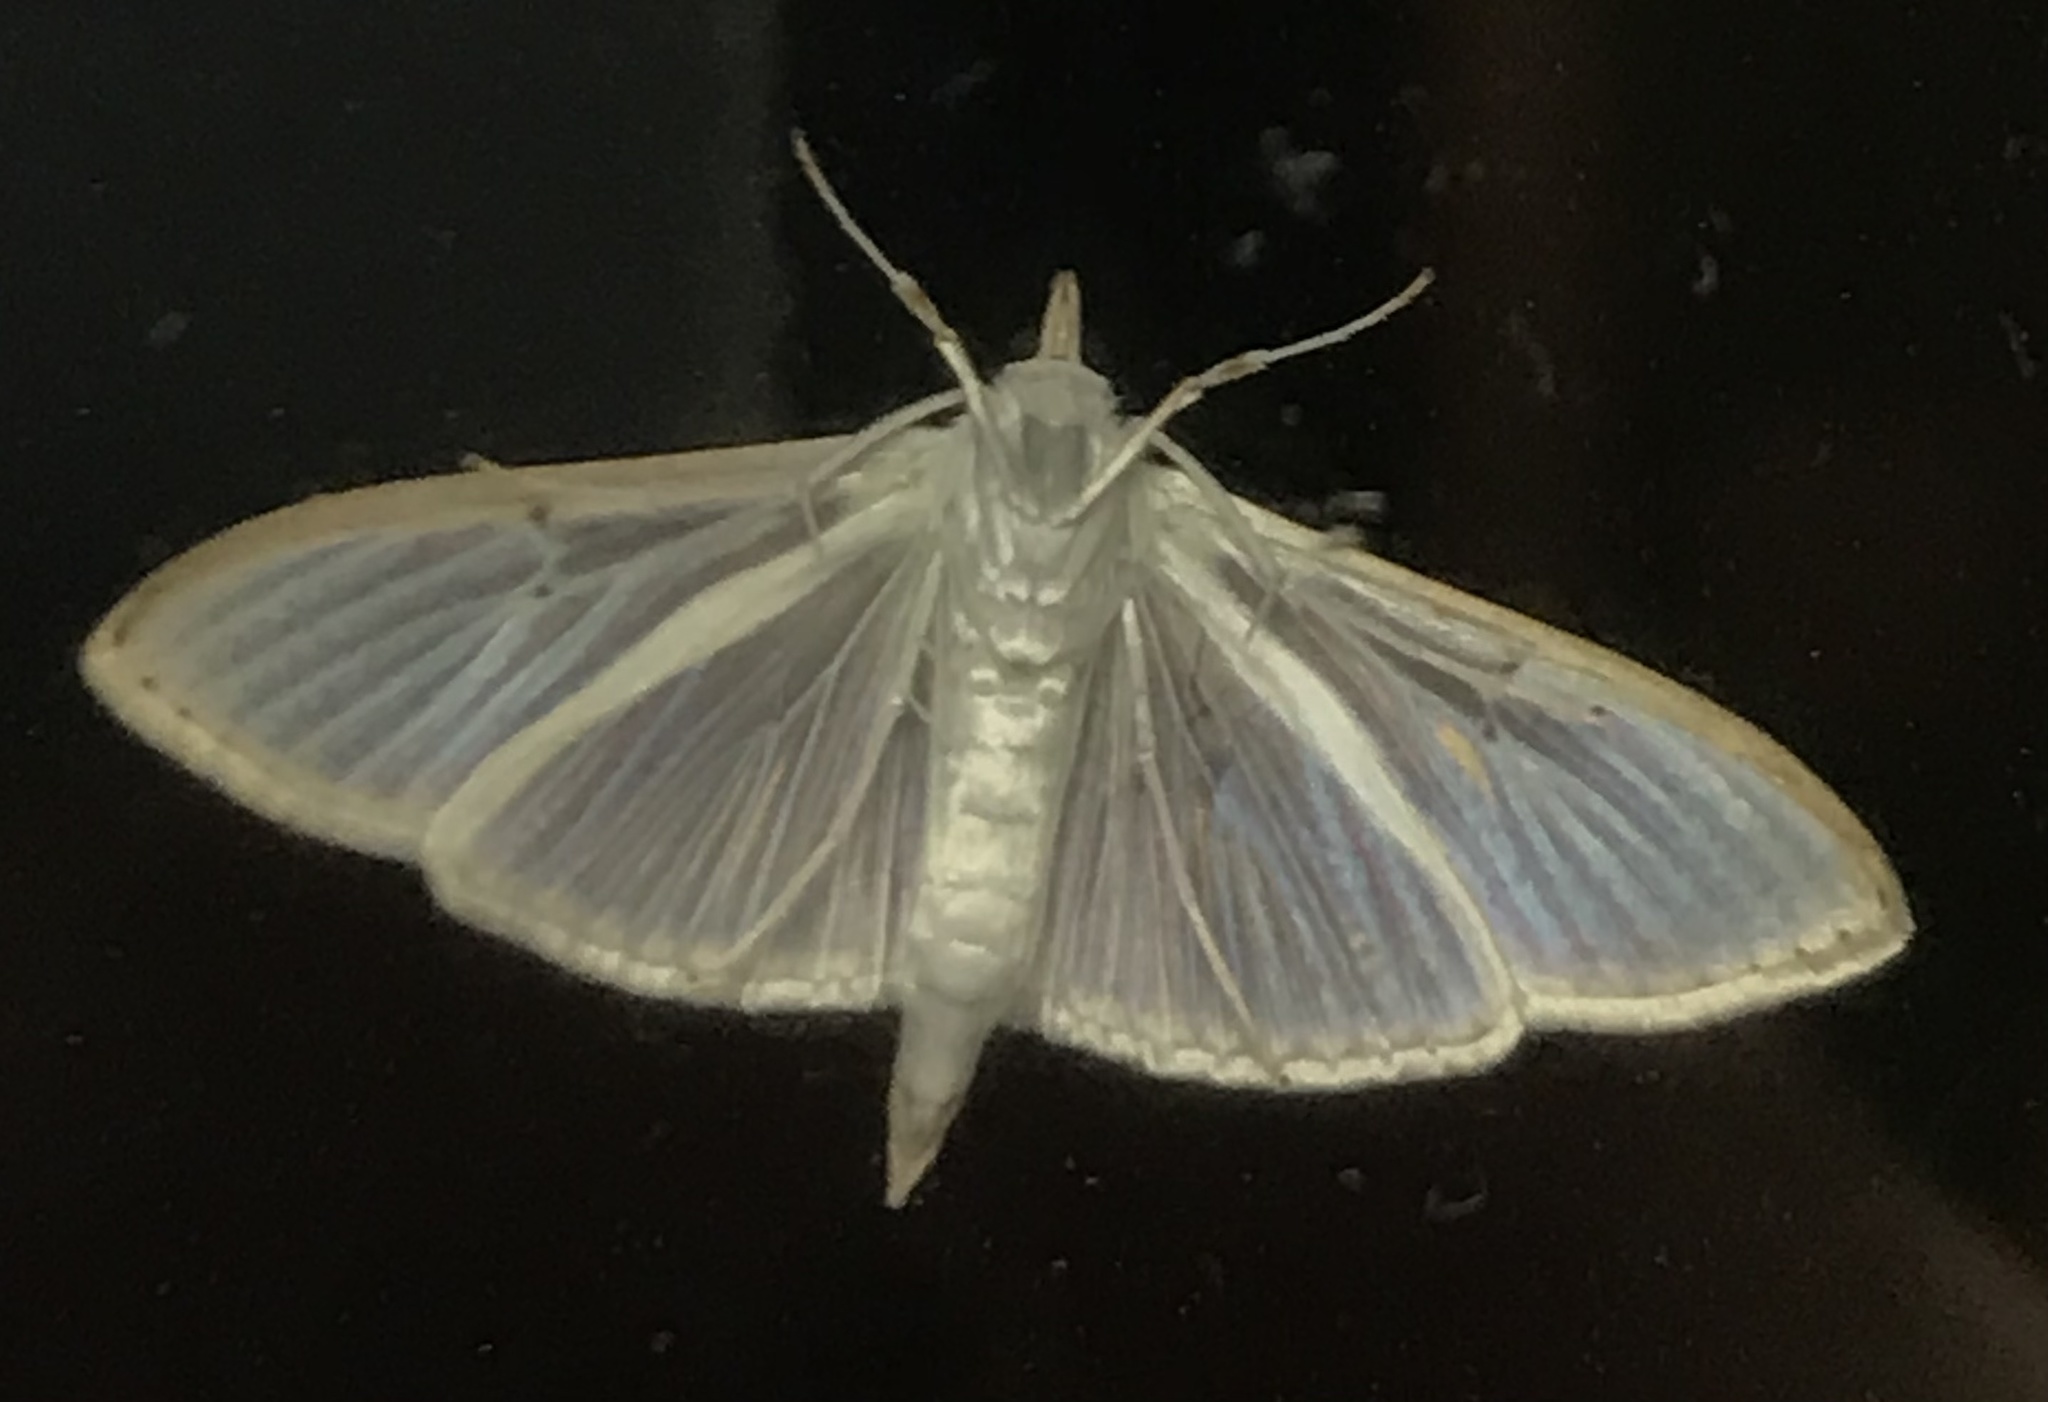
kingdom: Animalia
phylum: Arthropoda
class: Insecta
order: Lepidoptera
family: Crambidae
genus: Palpita
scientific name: Palpita quadristigmalis
